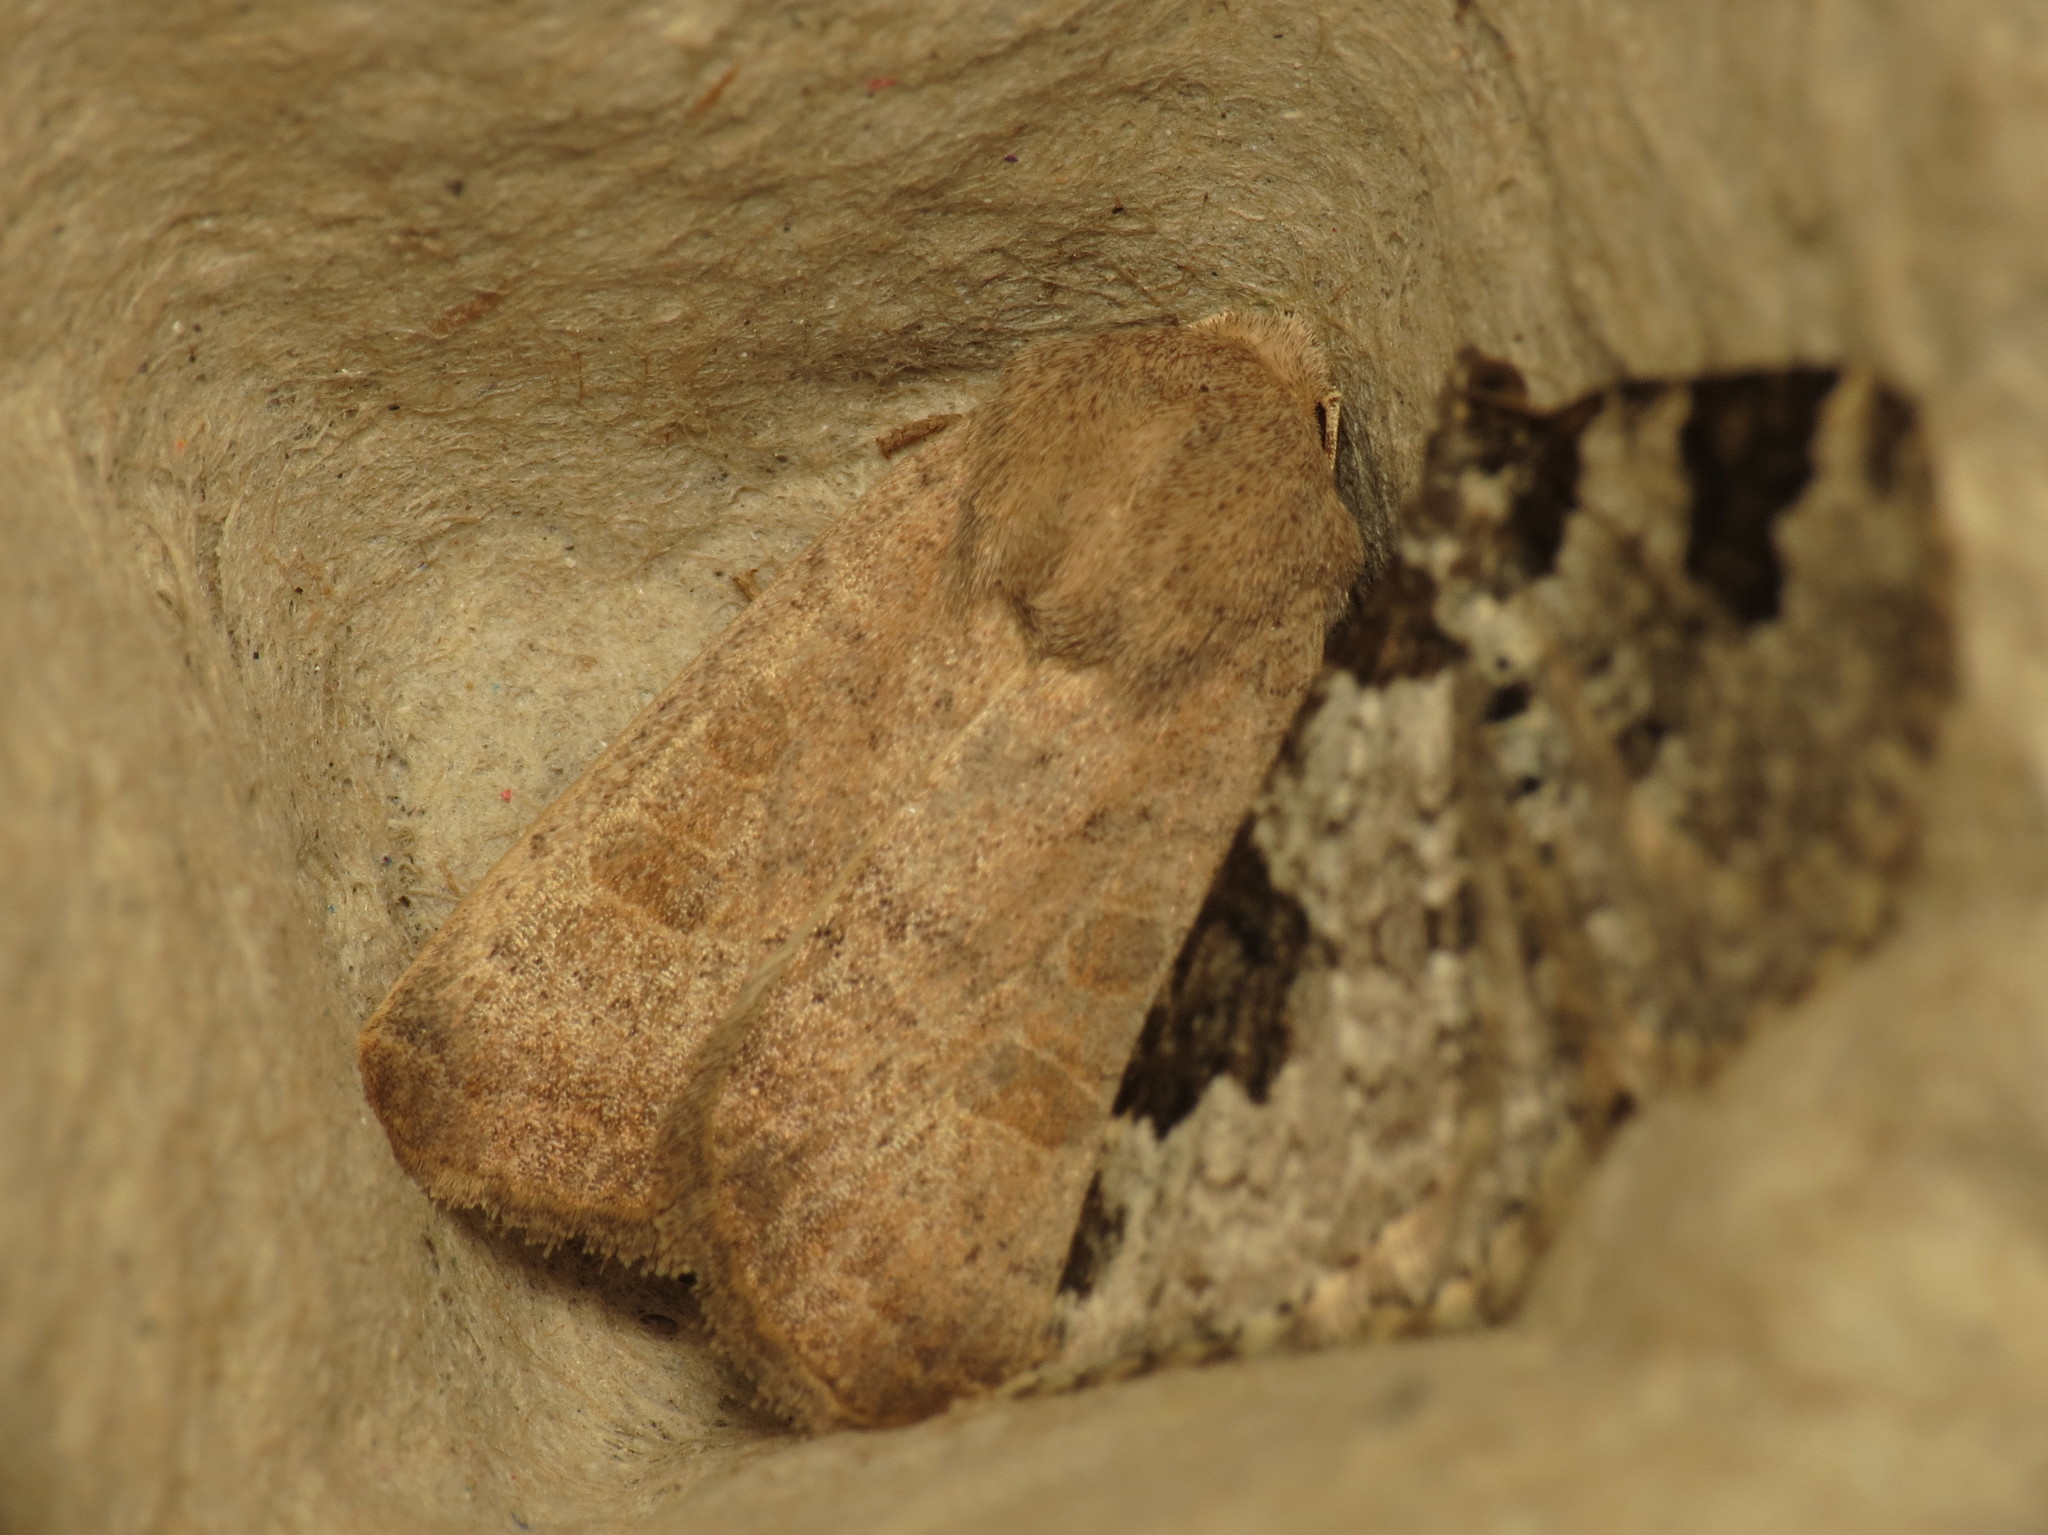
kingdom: Animalia
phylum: Arthropoda
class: Insecta
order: Lepidoptera
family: Geometridae
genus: Xanthorhoe
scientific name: Xanthorhoe fluctuata
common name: Garden carpet
